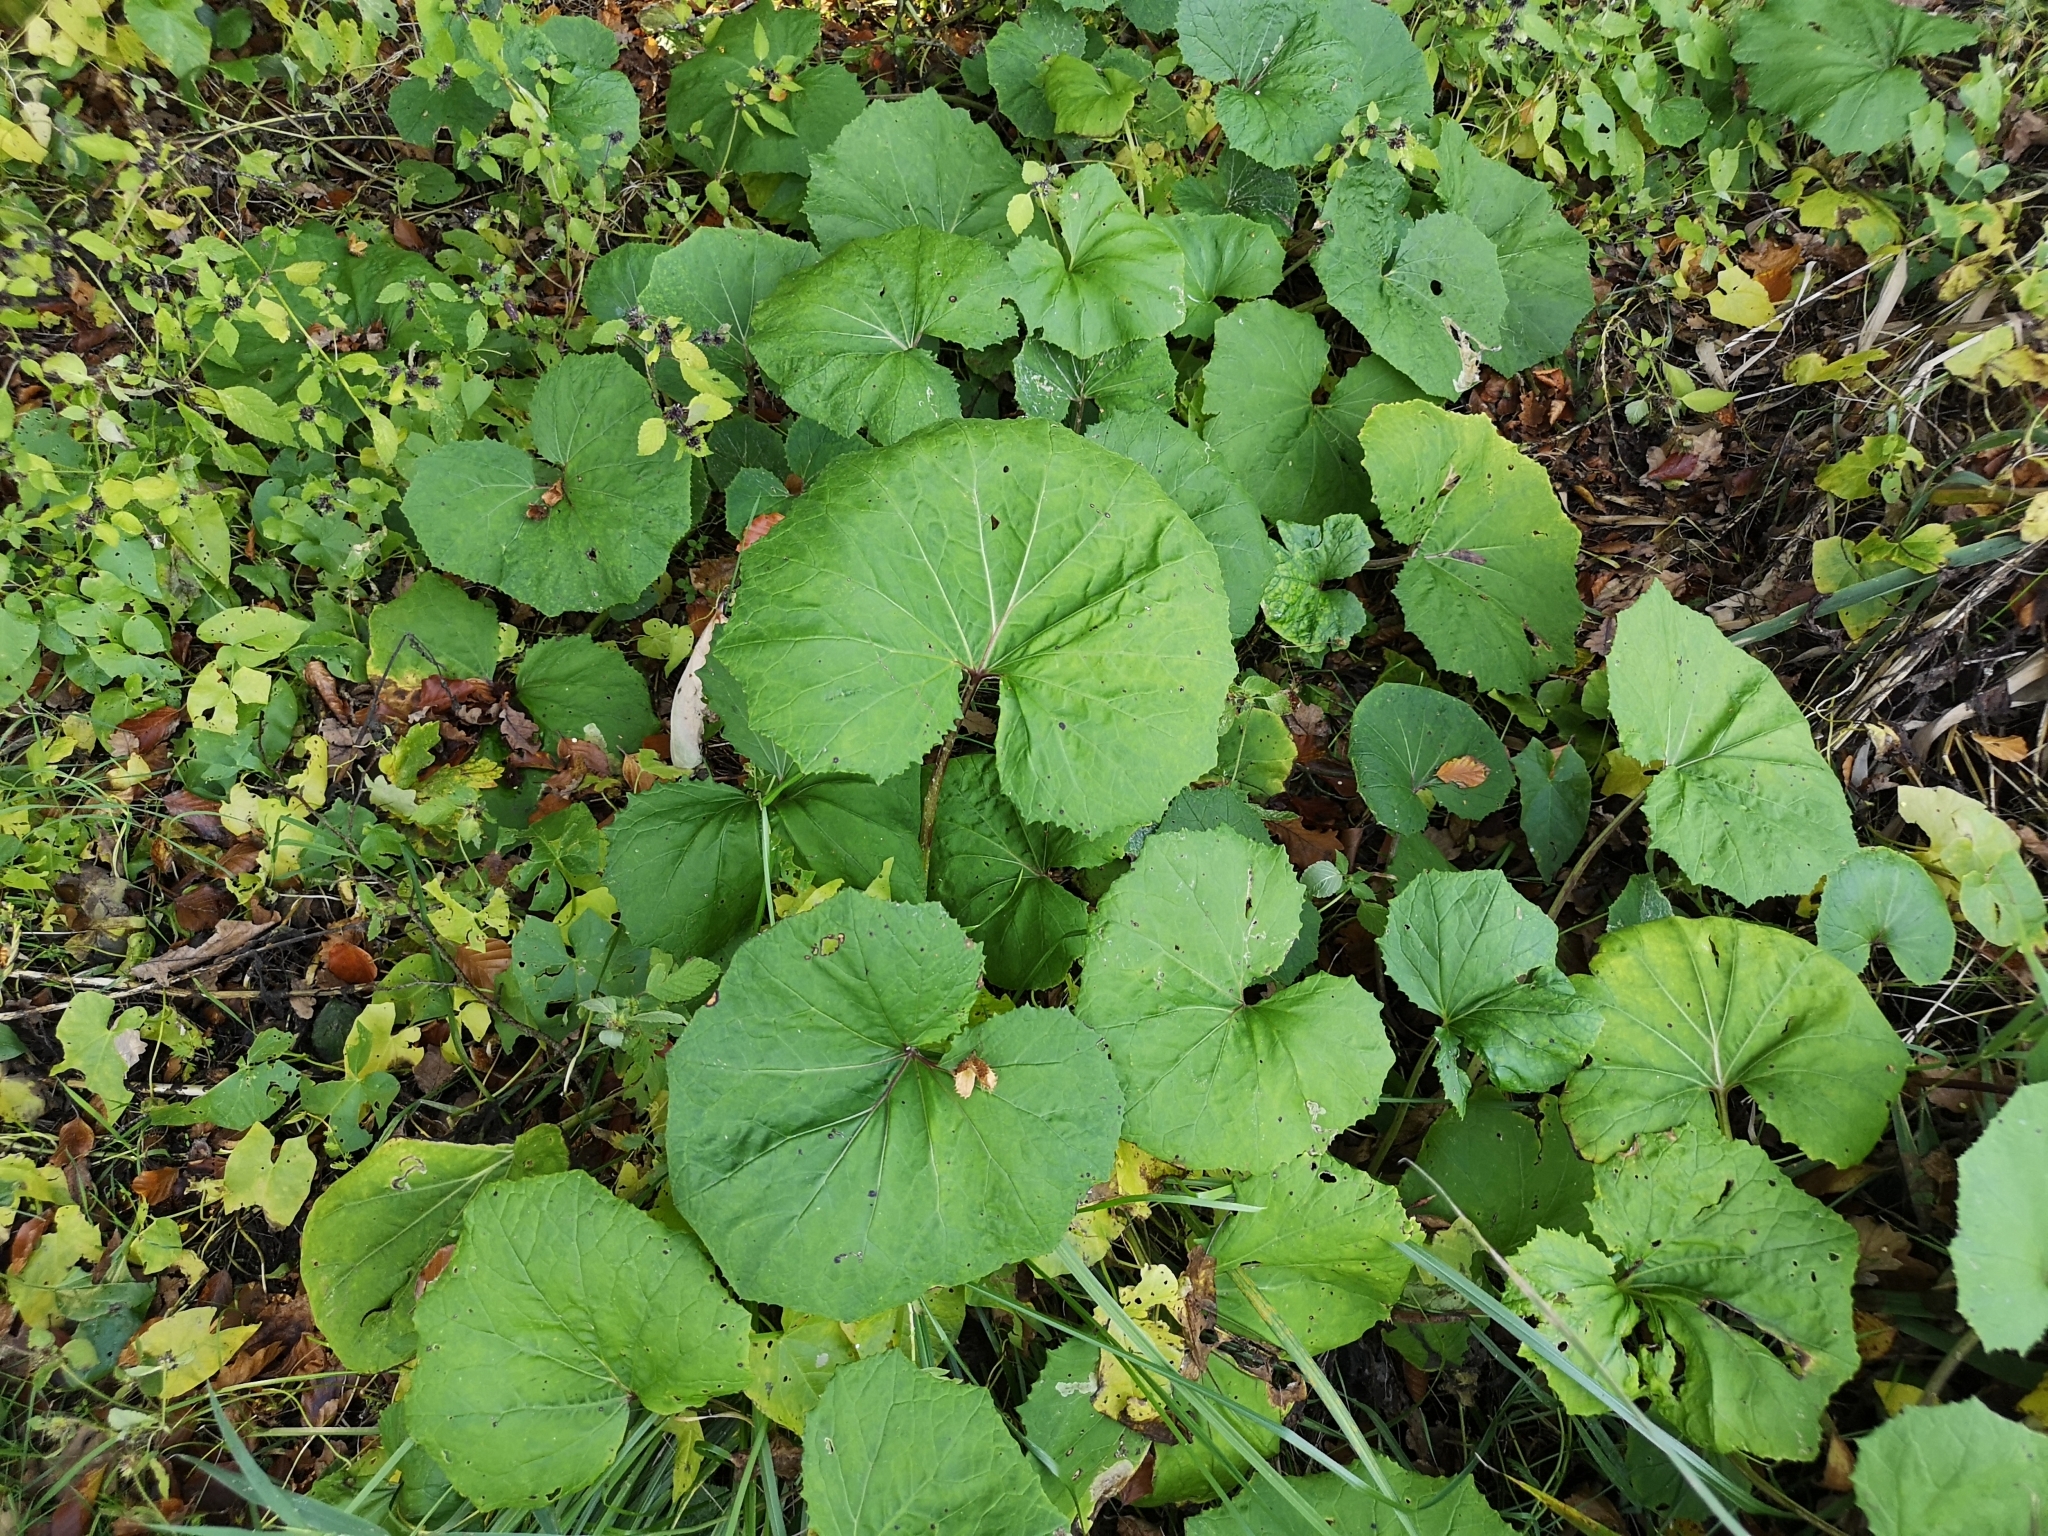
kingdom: Plantae
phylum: Tracheophyta
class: Magnoliopsida
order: Asterales
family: Asteraceae
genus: Petasites
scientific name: Petasites albus
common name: White butterbur
